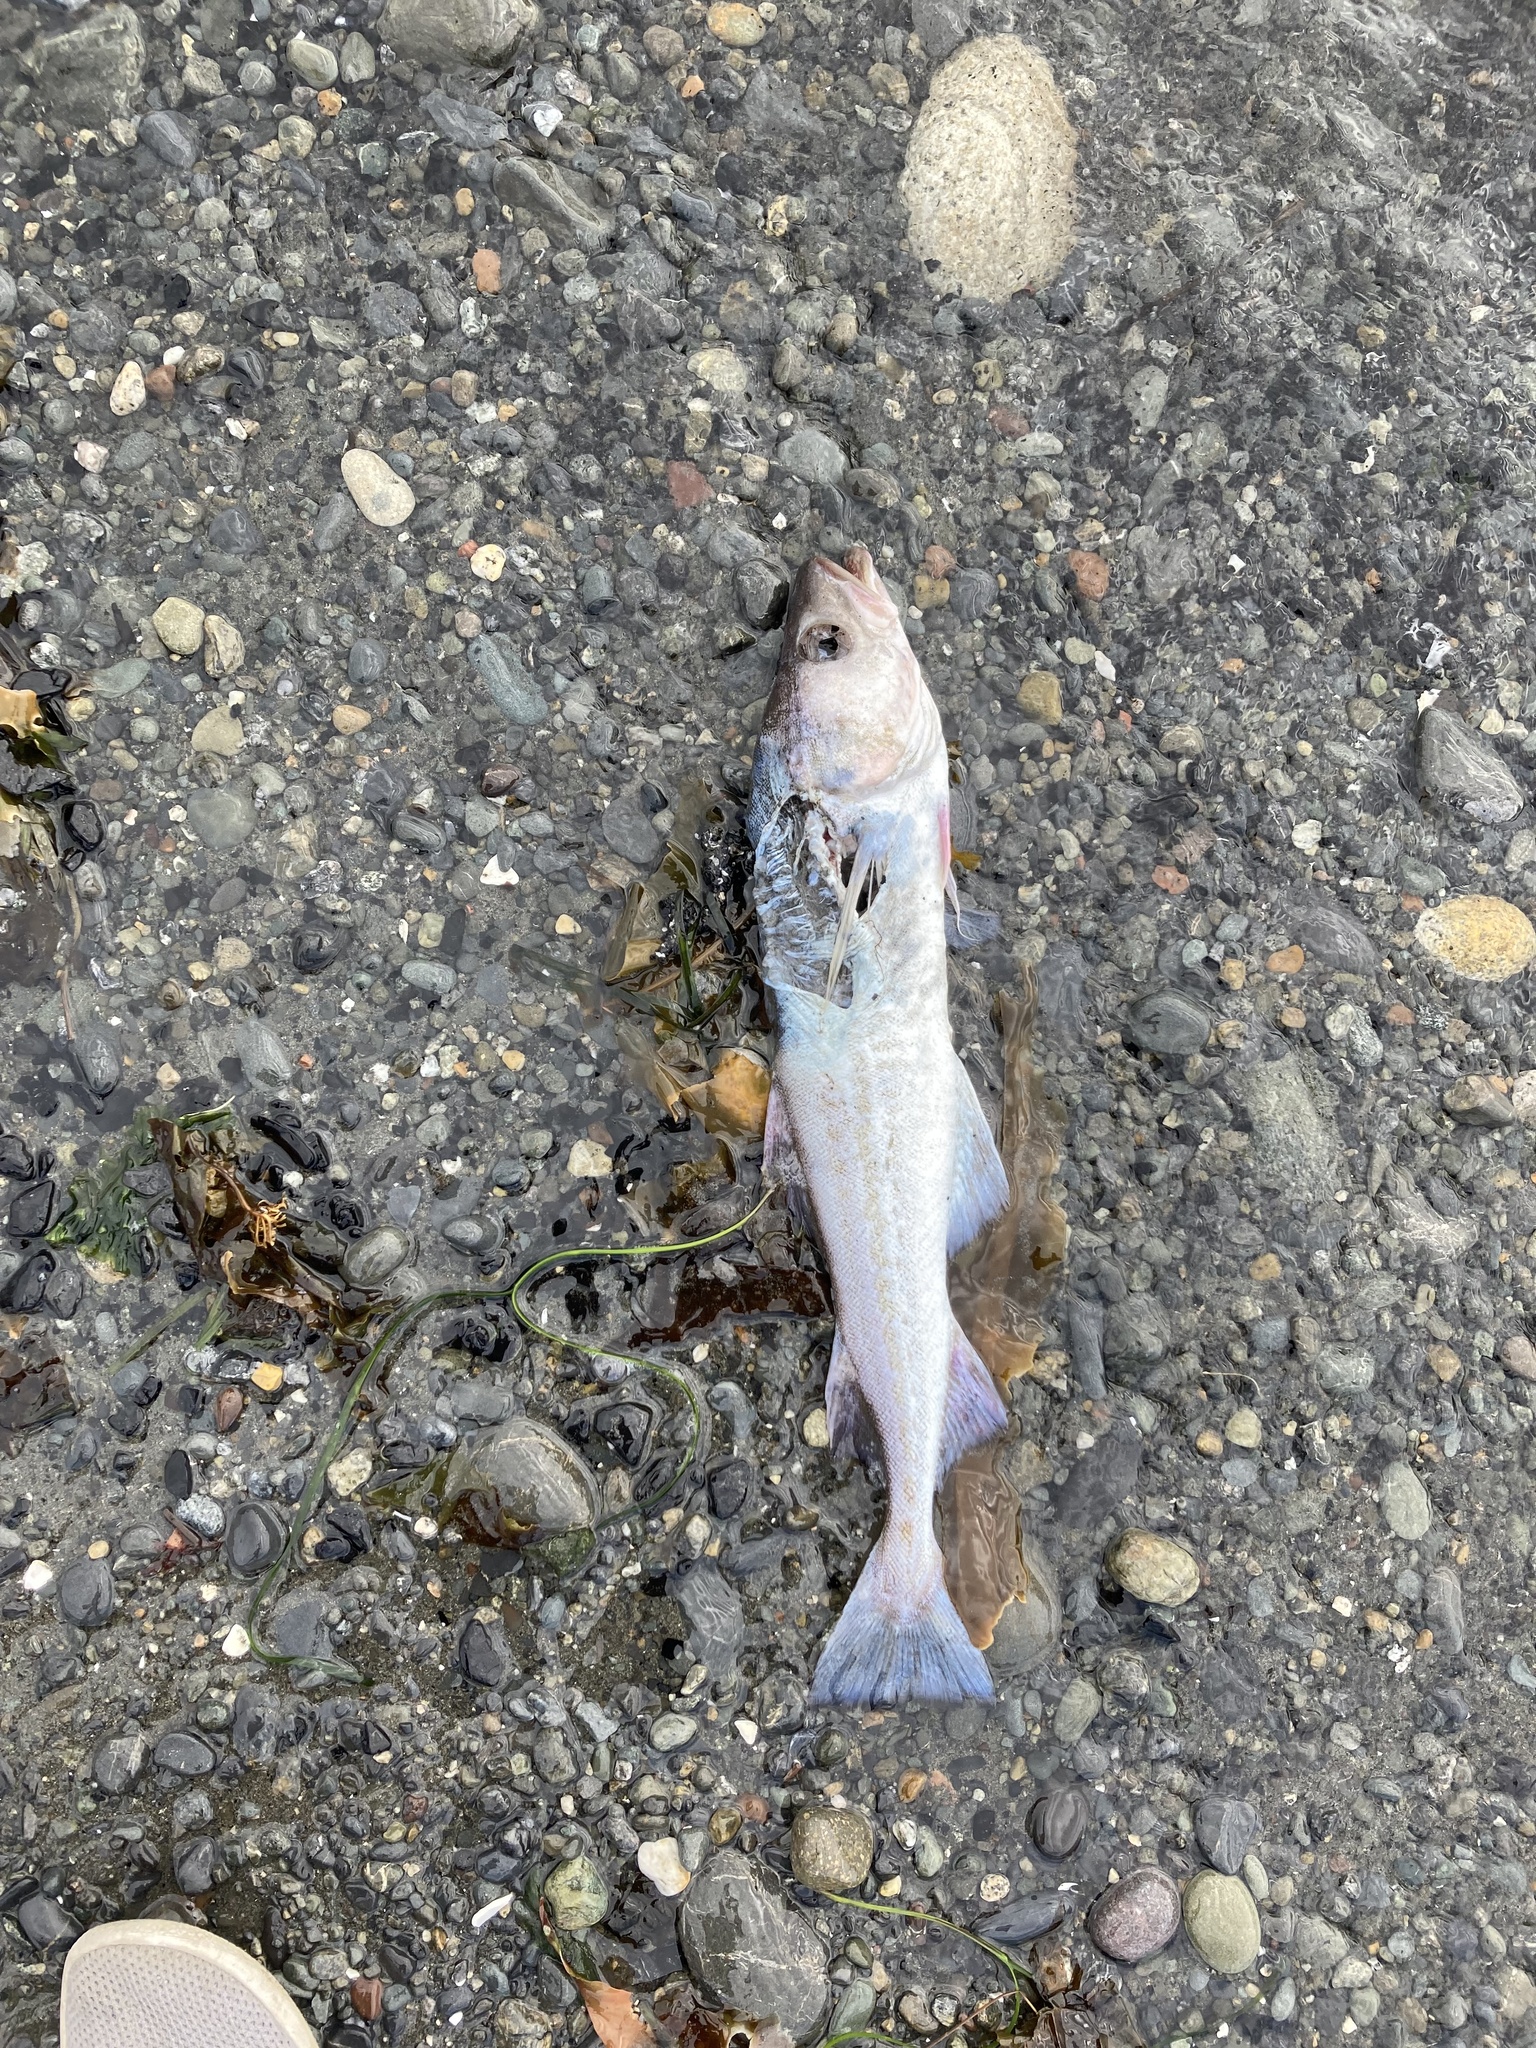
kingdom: Animalia
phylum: Chordata
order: Gadiformes
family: Gadidae
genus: Gadus
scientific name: Gadus chalcogrammus
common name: Walleye pollock
